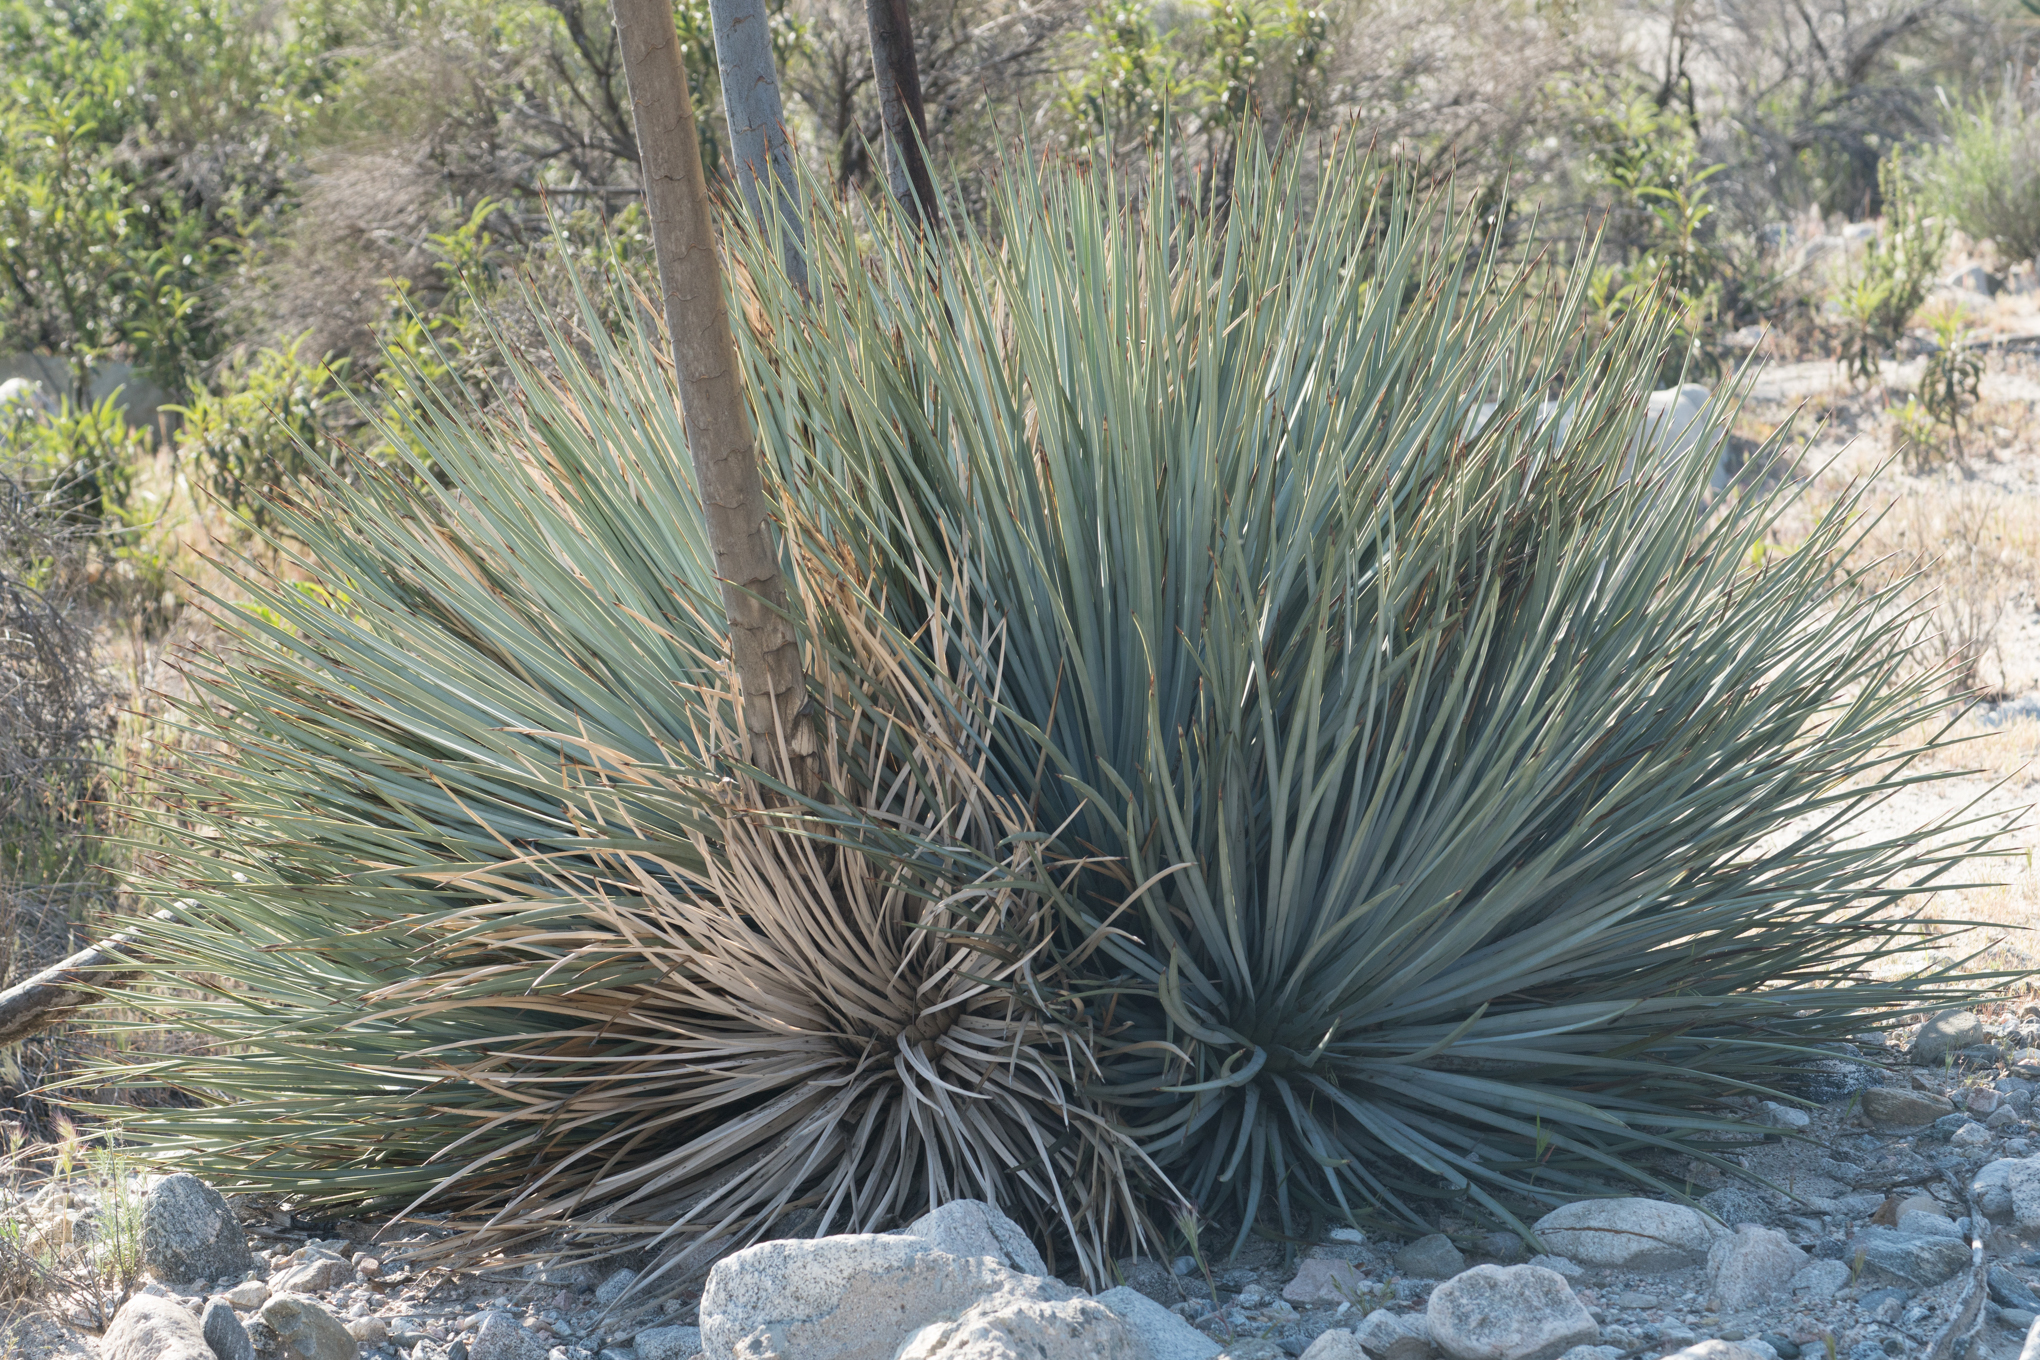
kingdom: Plantae
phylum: Tracheophyta
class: Liliopsida
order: Asparagales
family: Asparagaceae
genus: Hesperoyucca
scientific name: Hesperoyucca whipplei
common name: Our lord's-candle
